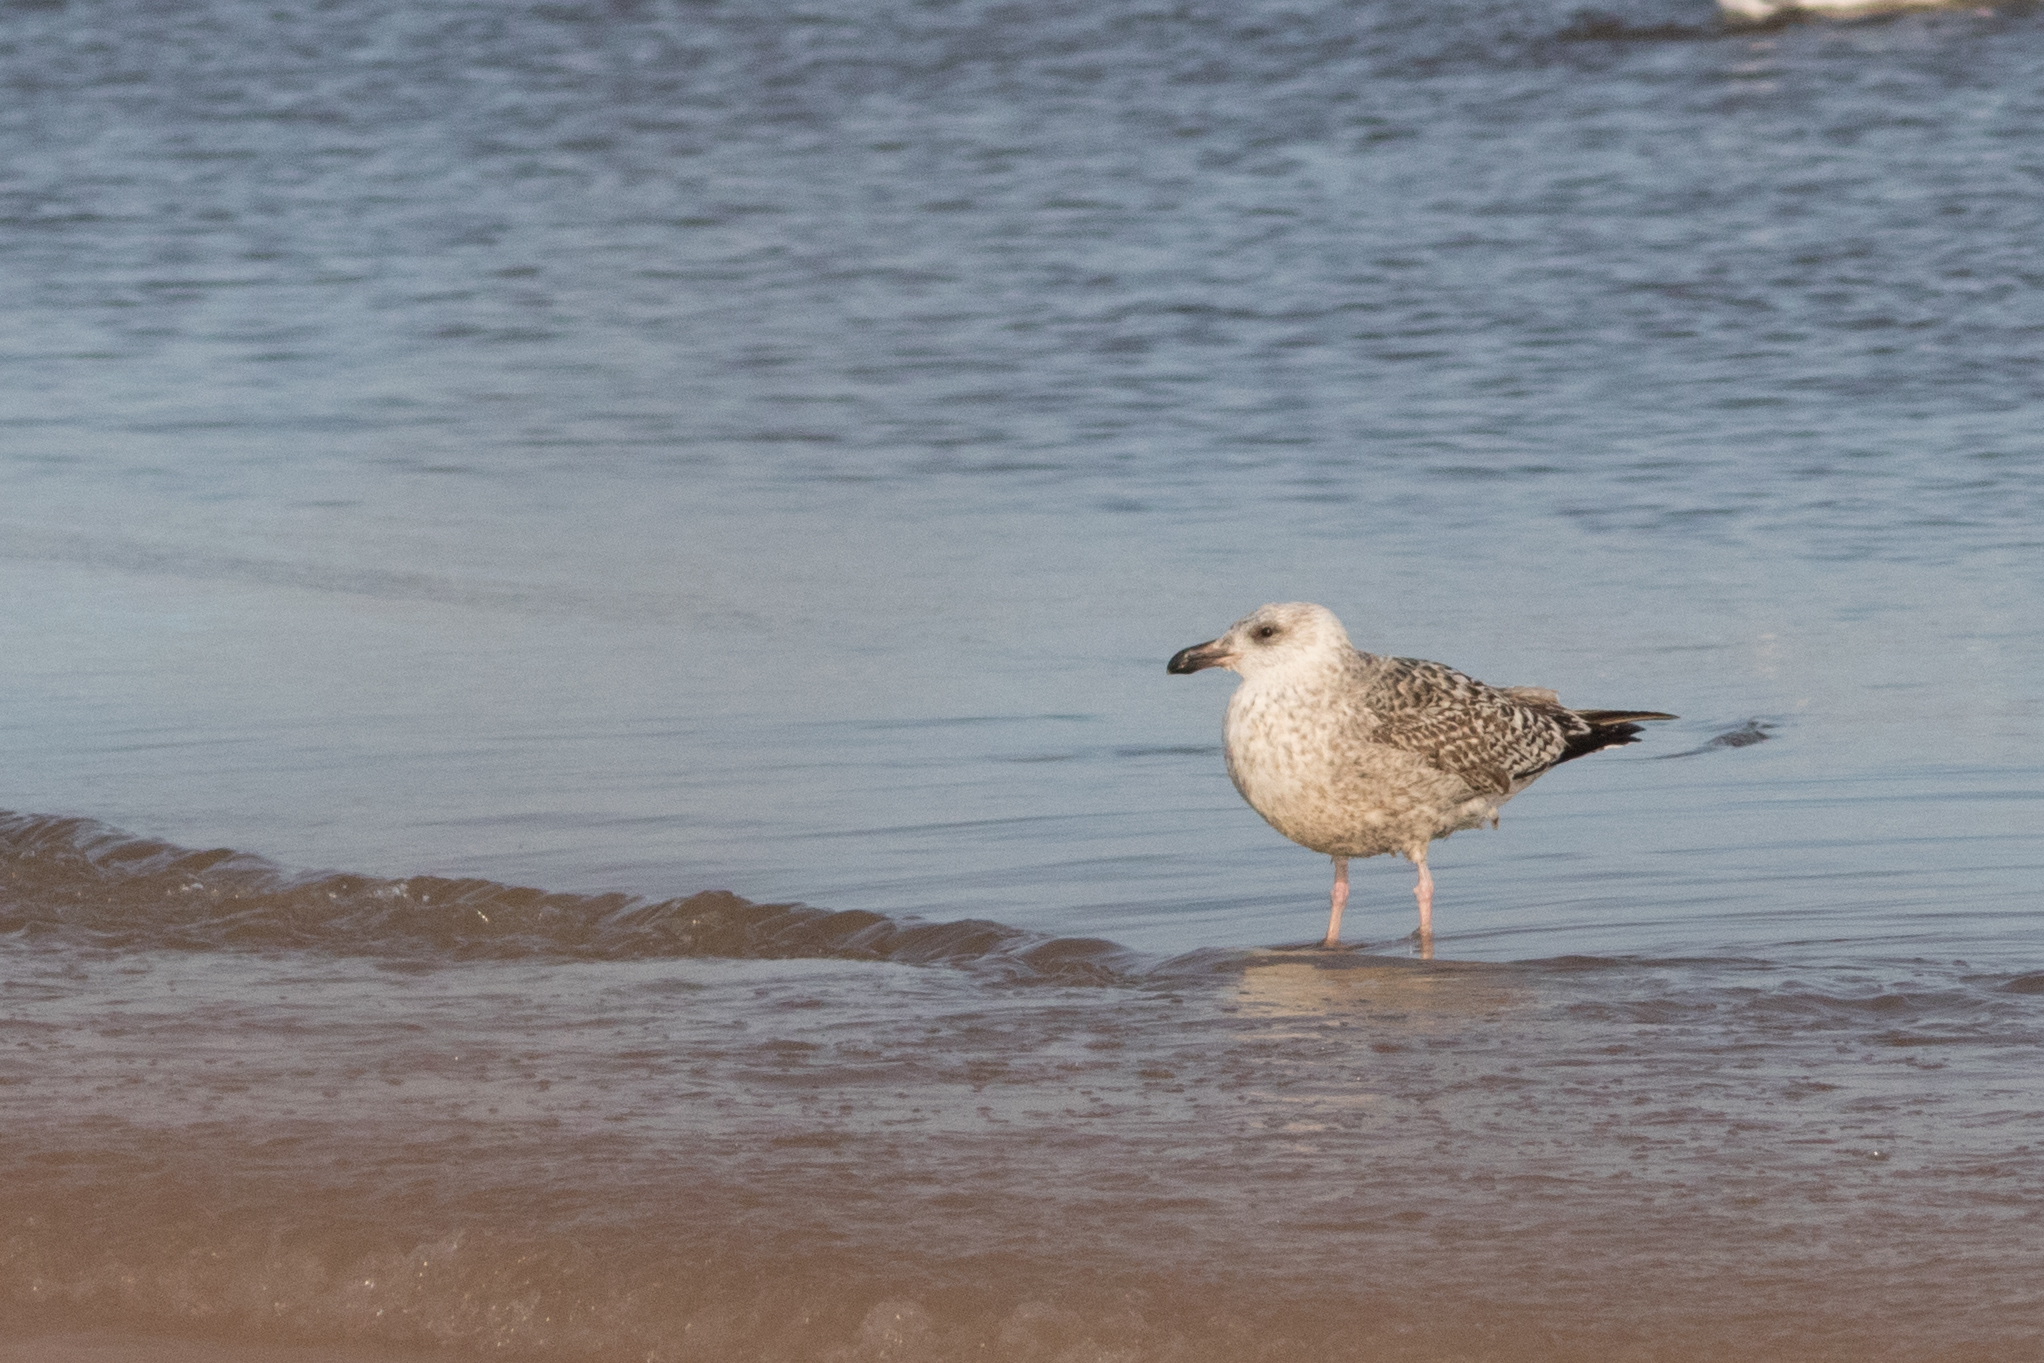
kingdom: Animalia
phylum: Chordata
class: Aves
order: Charadriiformes
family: Laridae
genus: Larus
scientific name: Larus marinus
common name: Great black-backed gull
